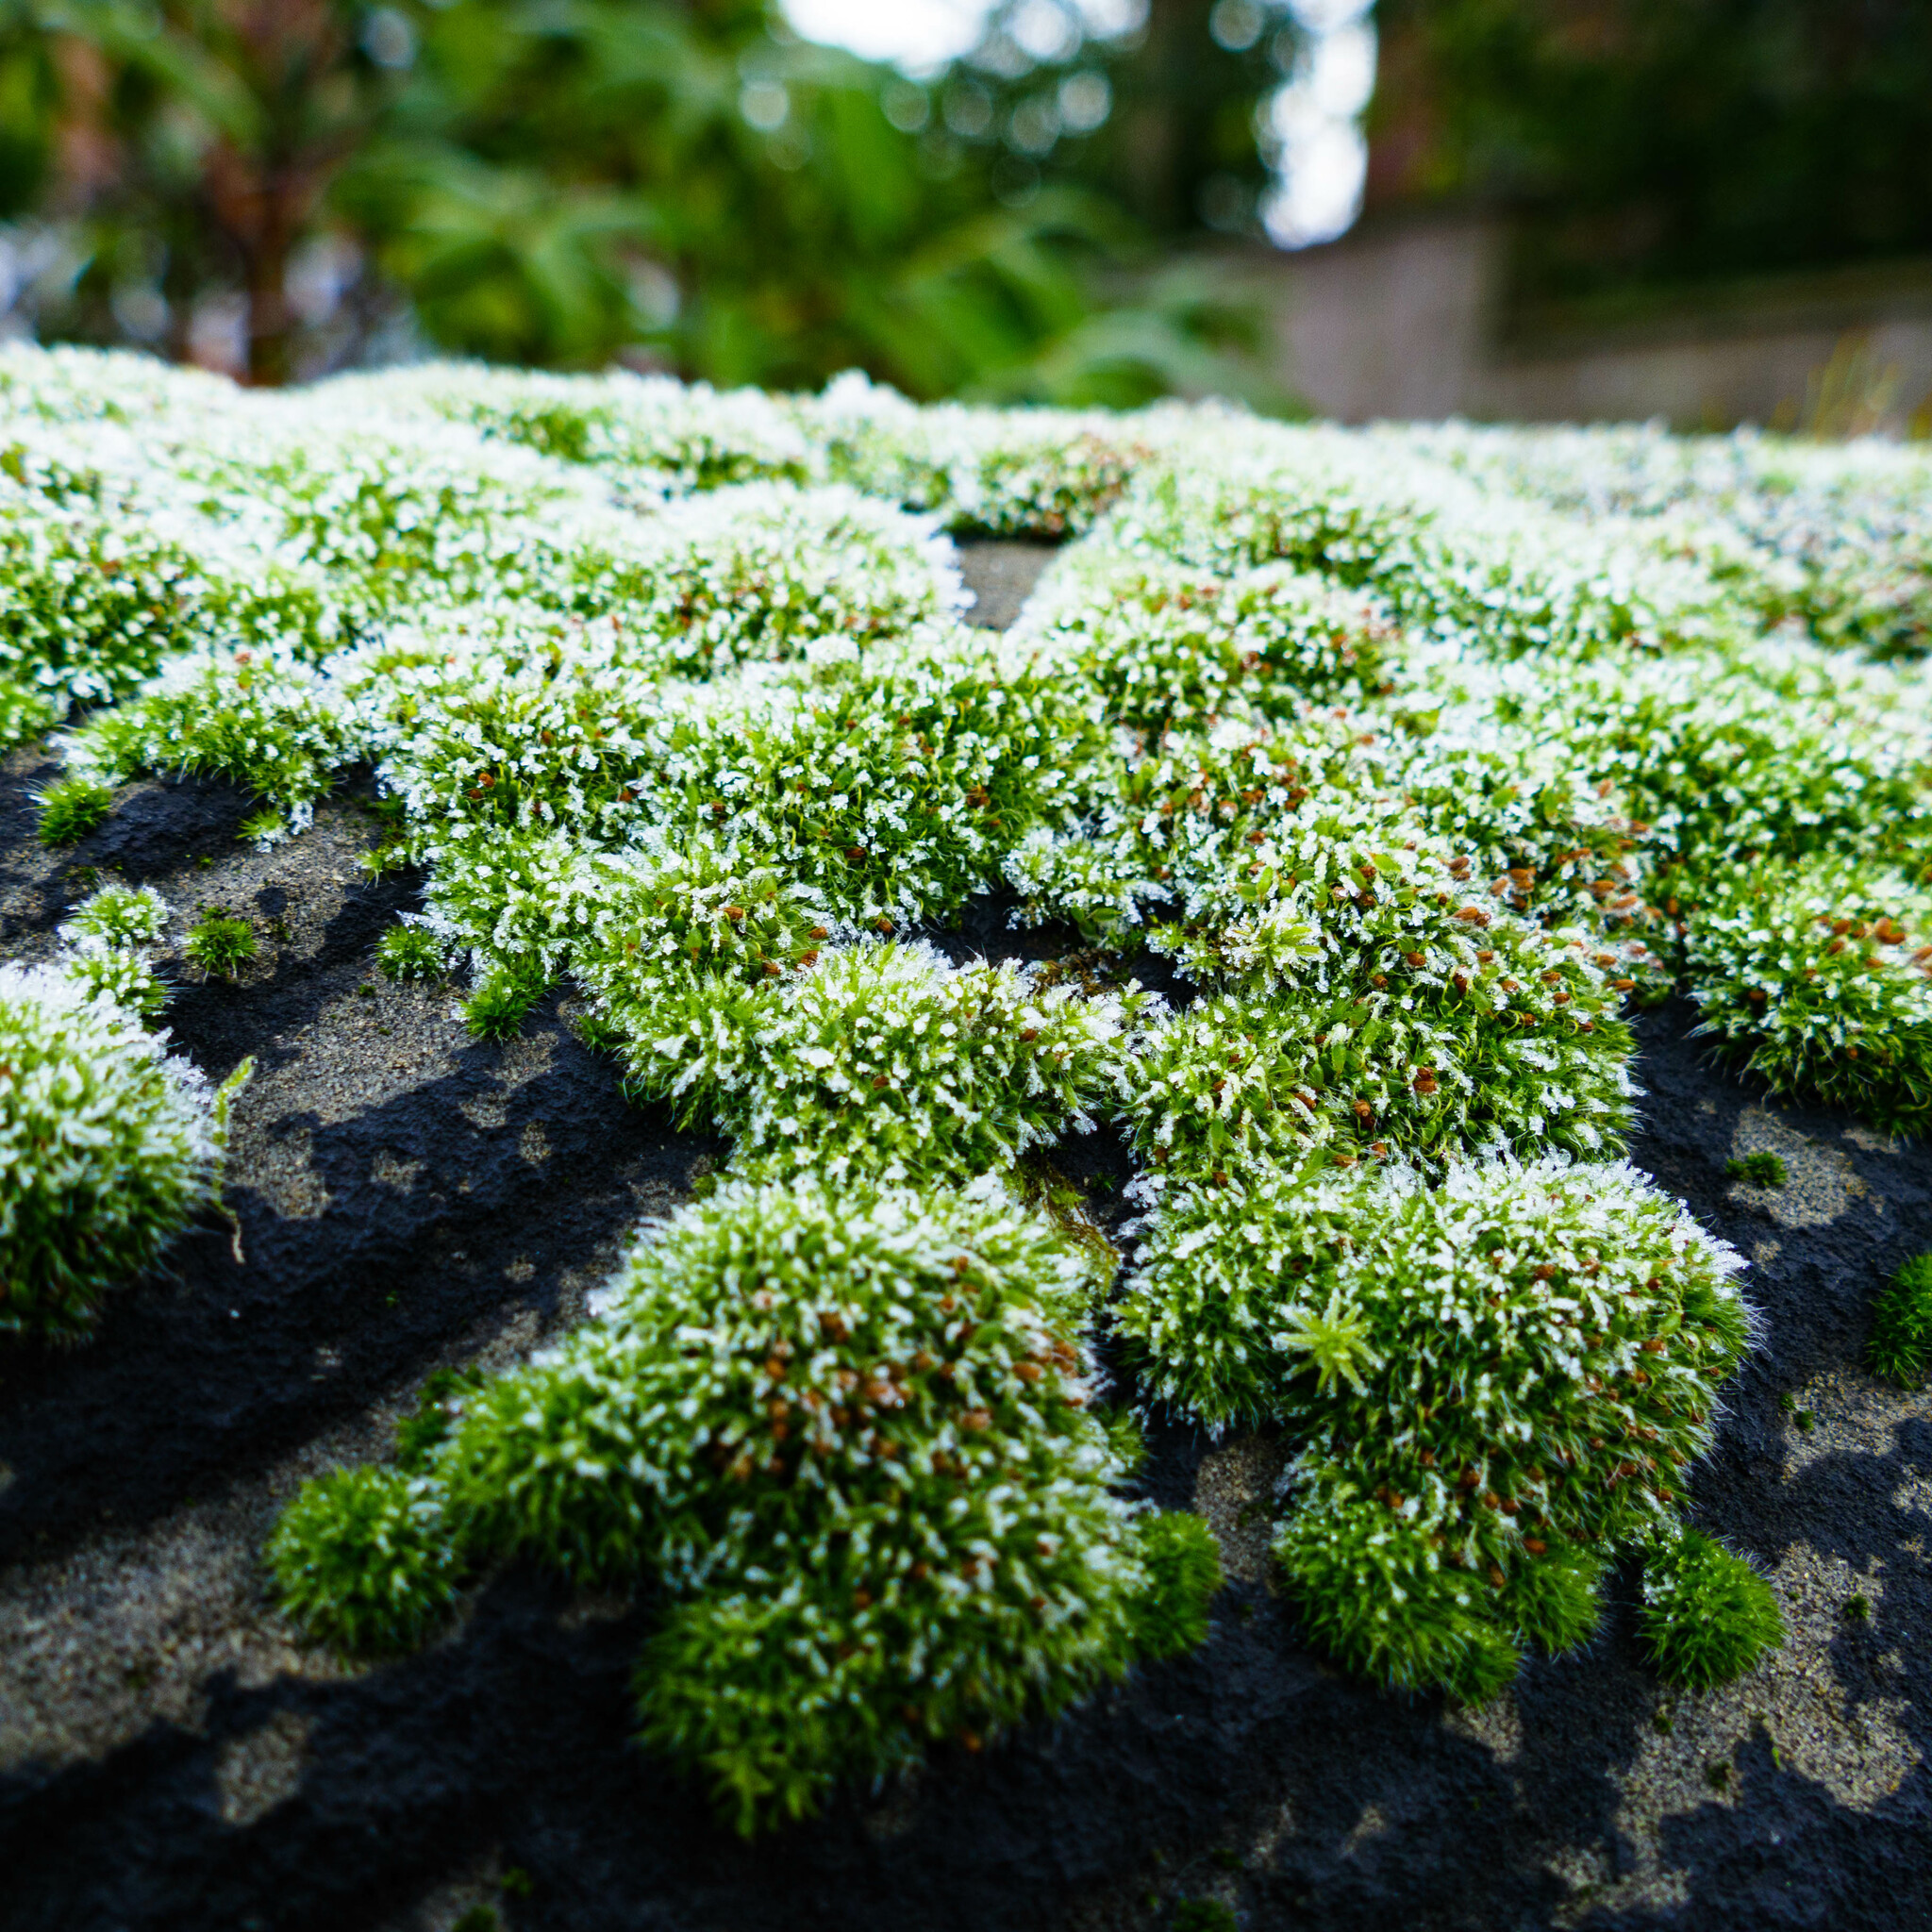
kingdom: Plantae
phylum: Bryophyta
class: Bryopsida
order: Grimmiales
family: Grimmiaceae
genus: Grimmia
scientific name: Grimmia pulvinata
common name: Grey-cushioned grimmia
